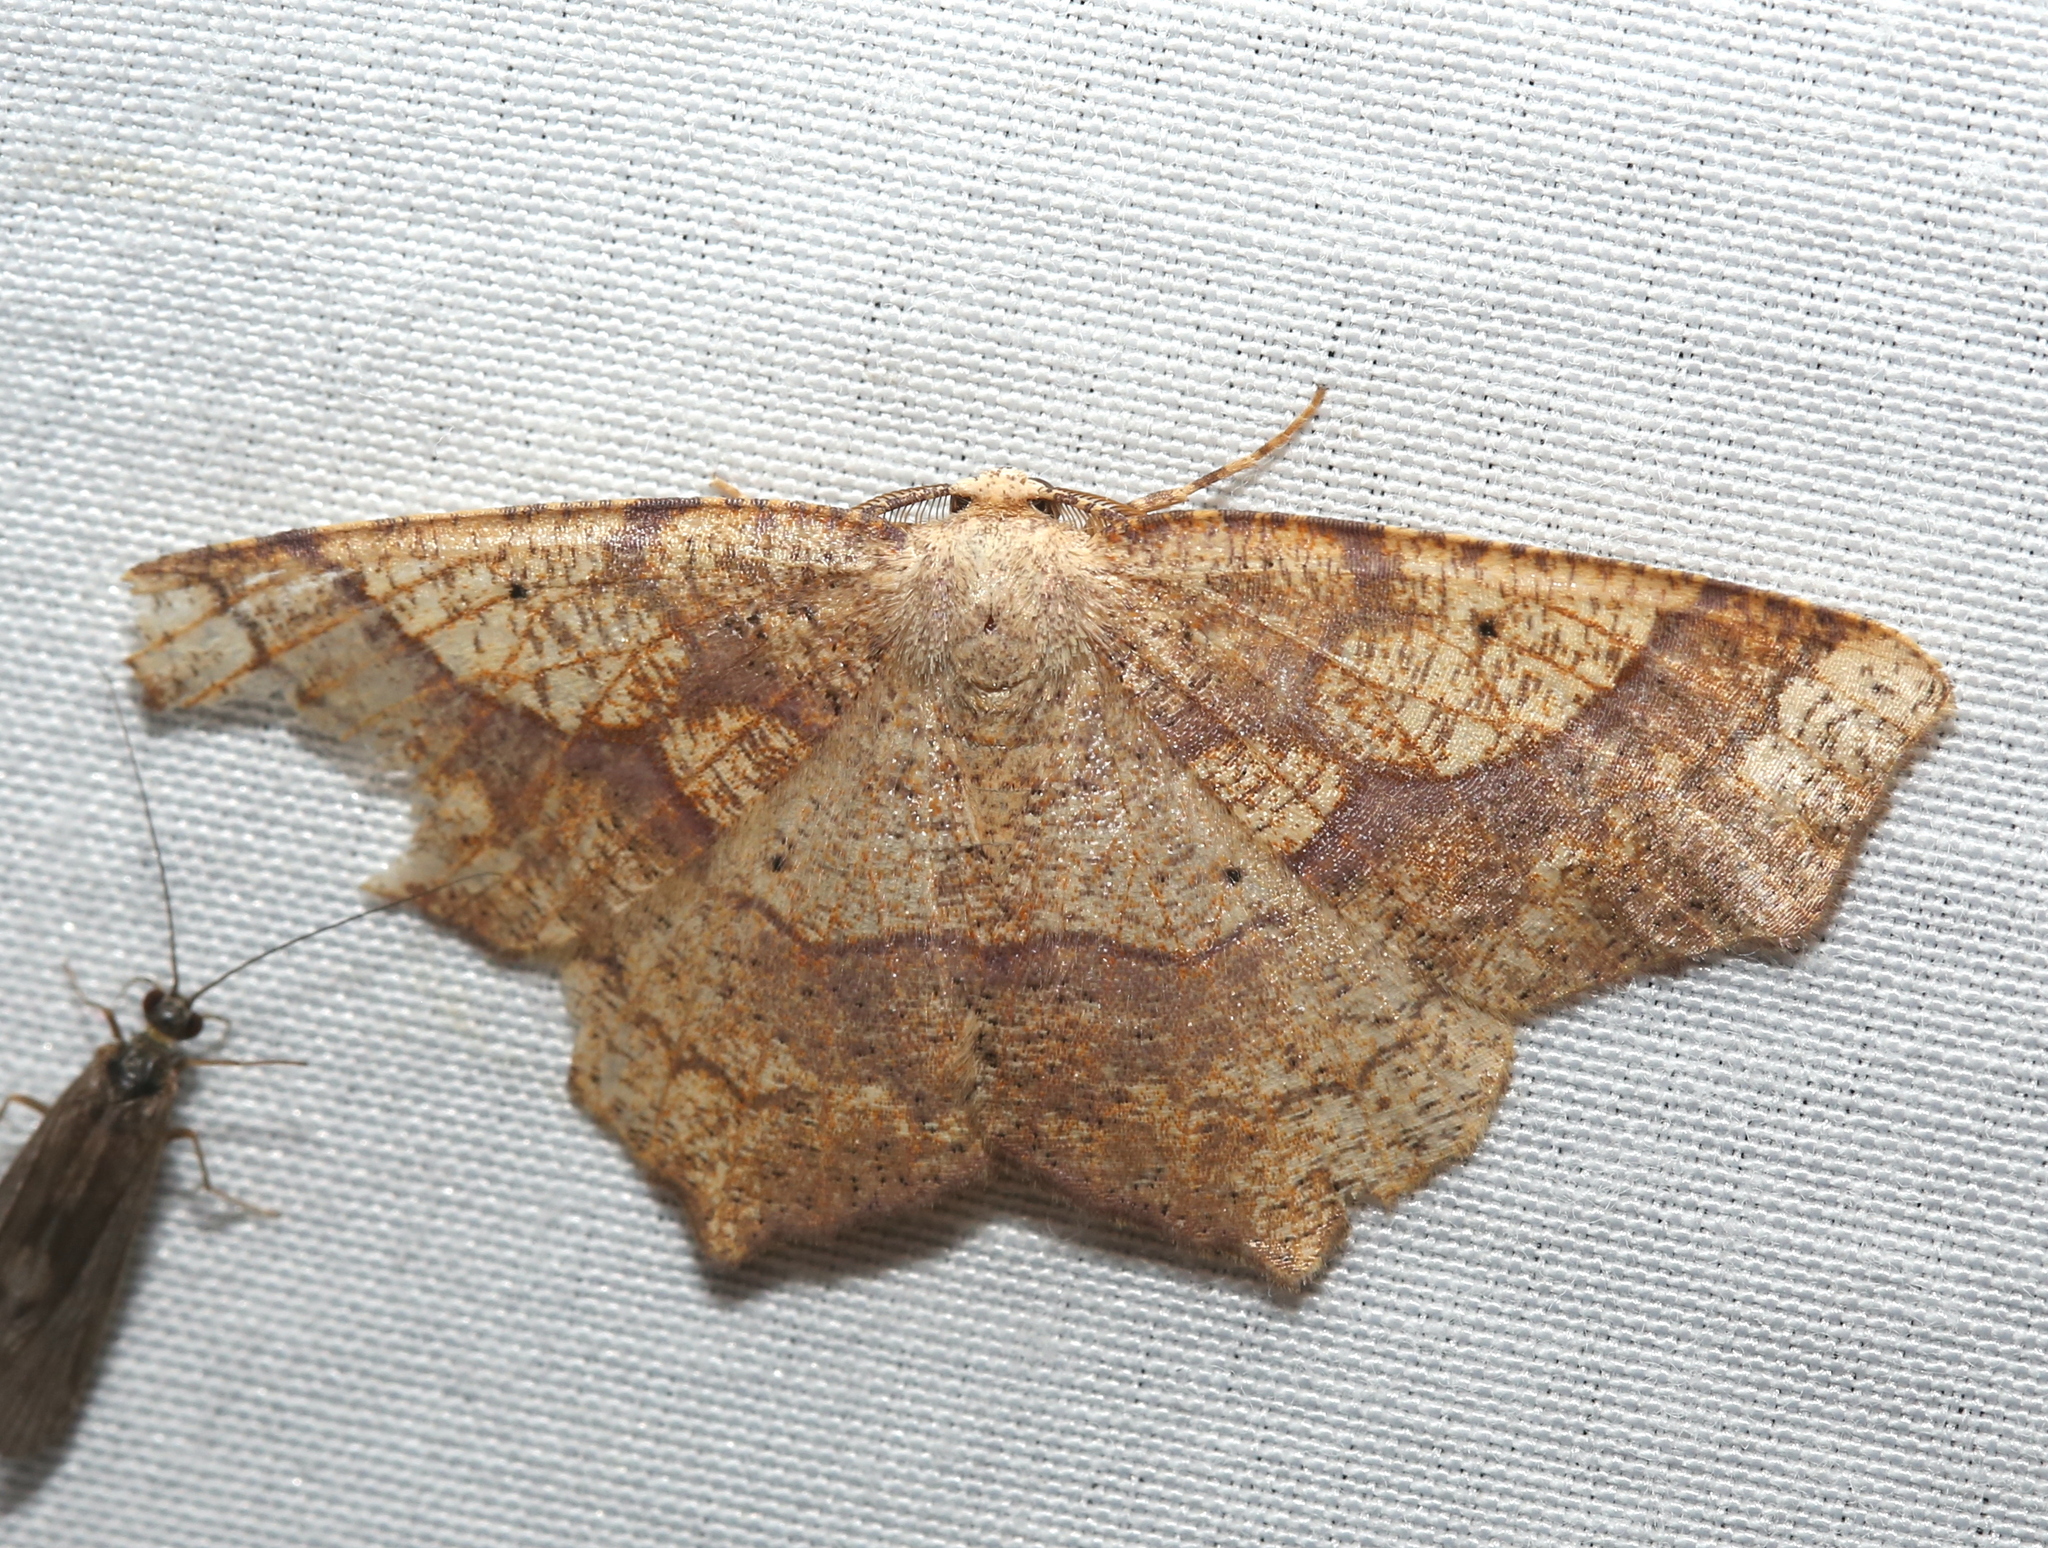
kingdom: Animalia
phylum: Arthropoda
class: Insecta
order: Lepidoptera
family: Geometridae
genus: Besma
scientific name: Besma quercivoraria
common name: Oak besma
